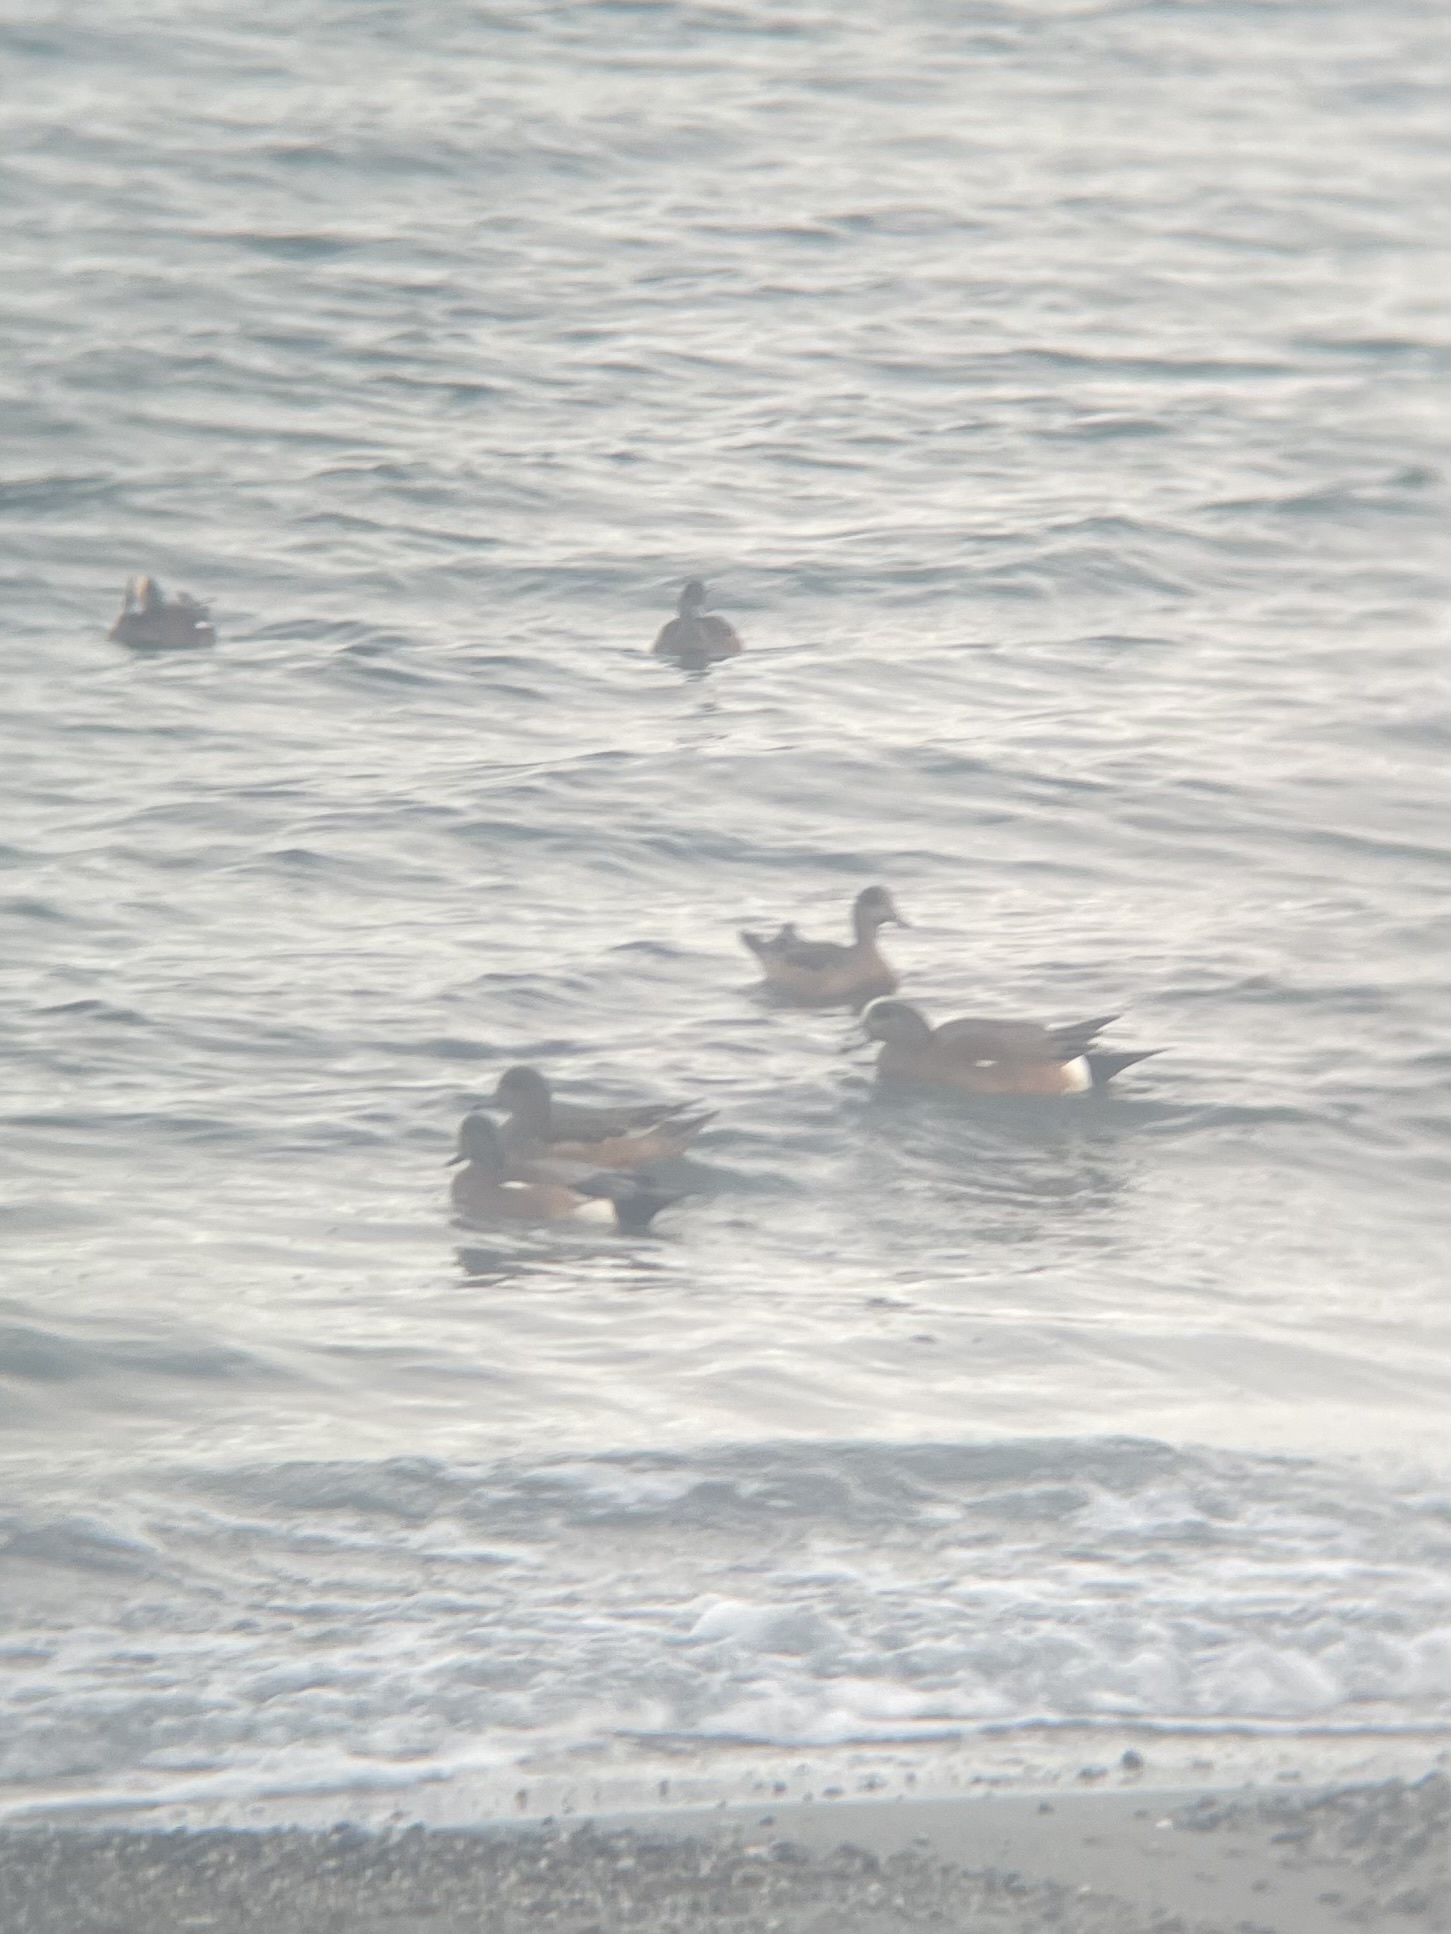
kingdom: Animalia
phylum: Chordata
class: Aves
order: Anseriformes
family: Anatidae
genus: Mareca
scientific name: Mareca americana
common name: American wigeon
